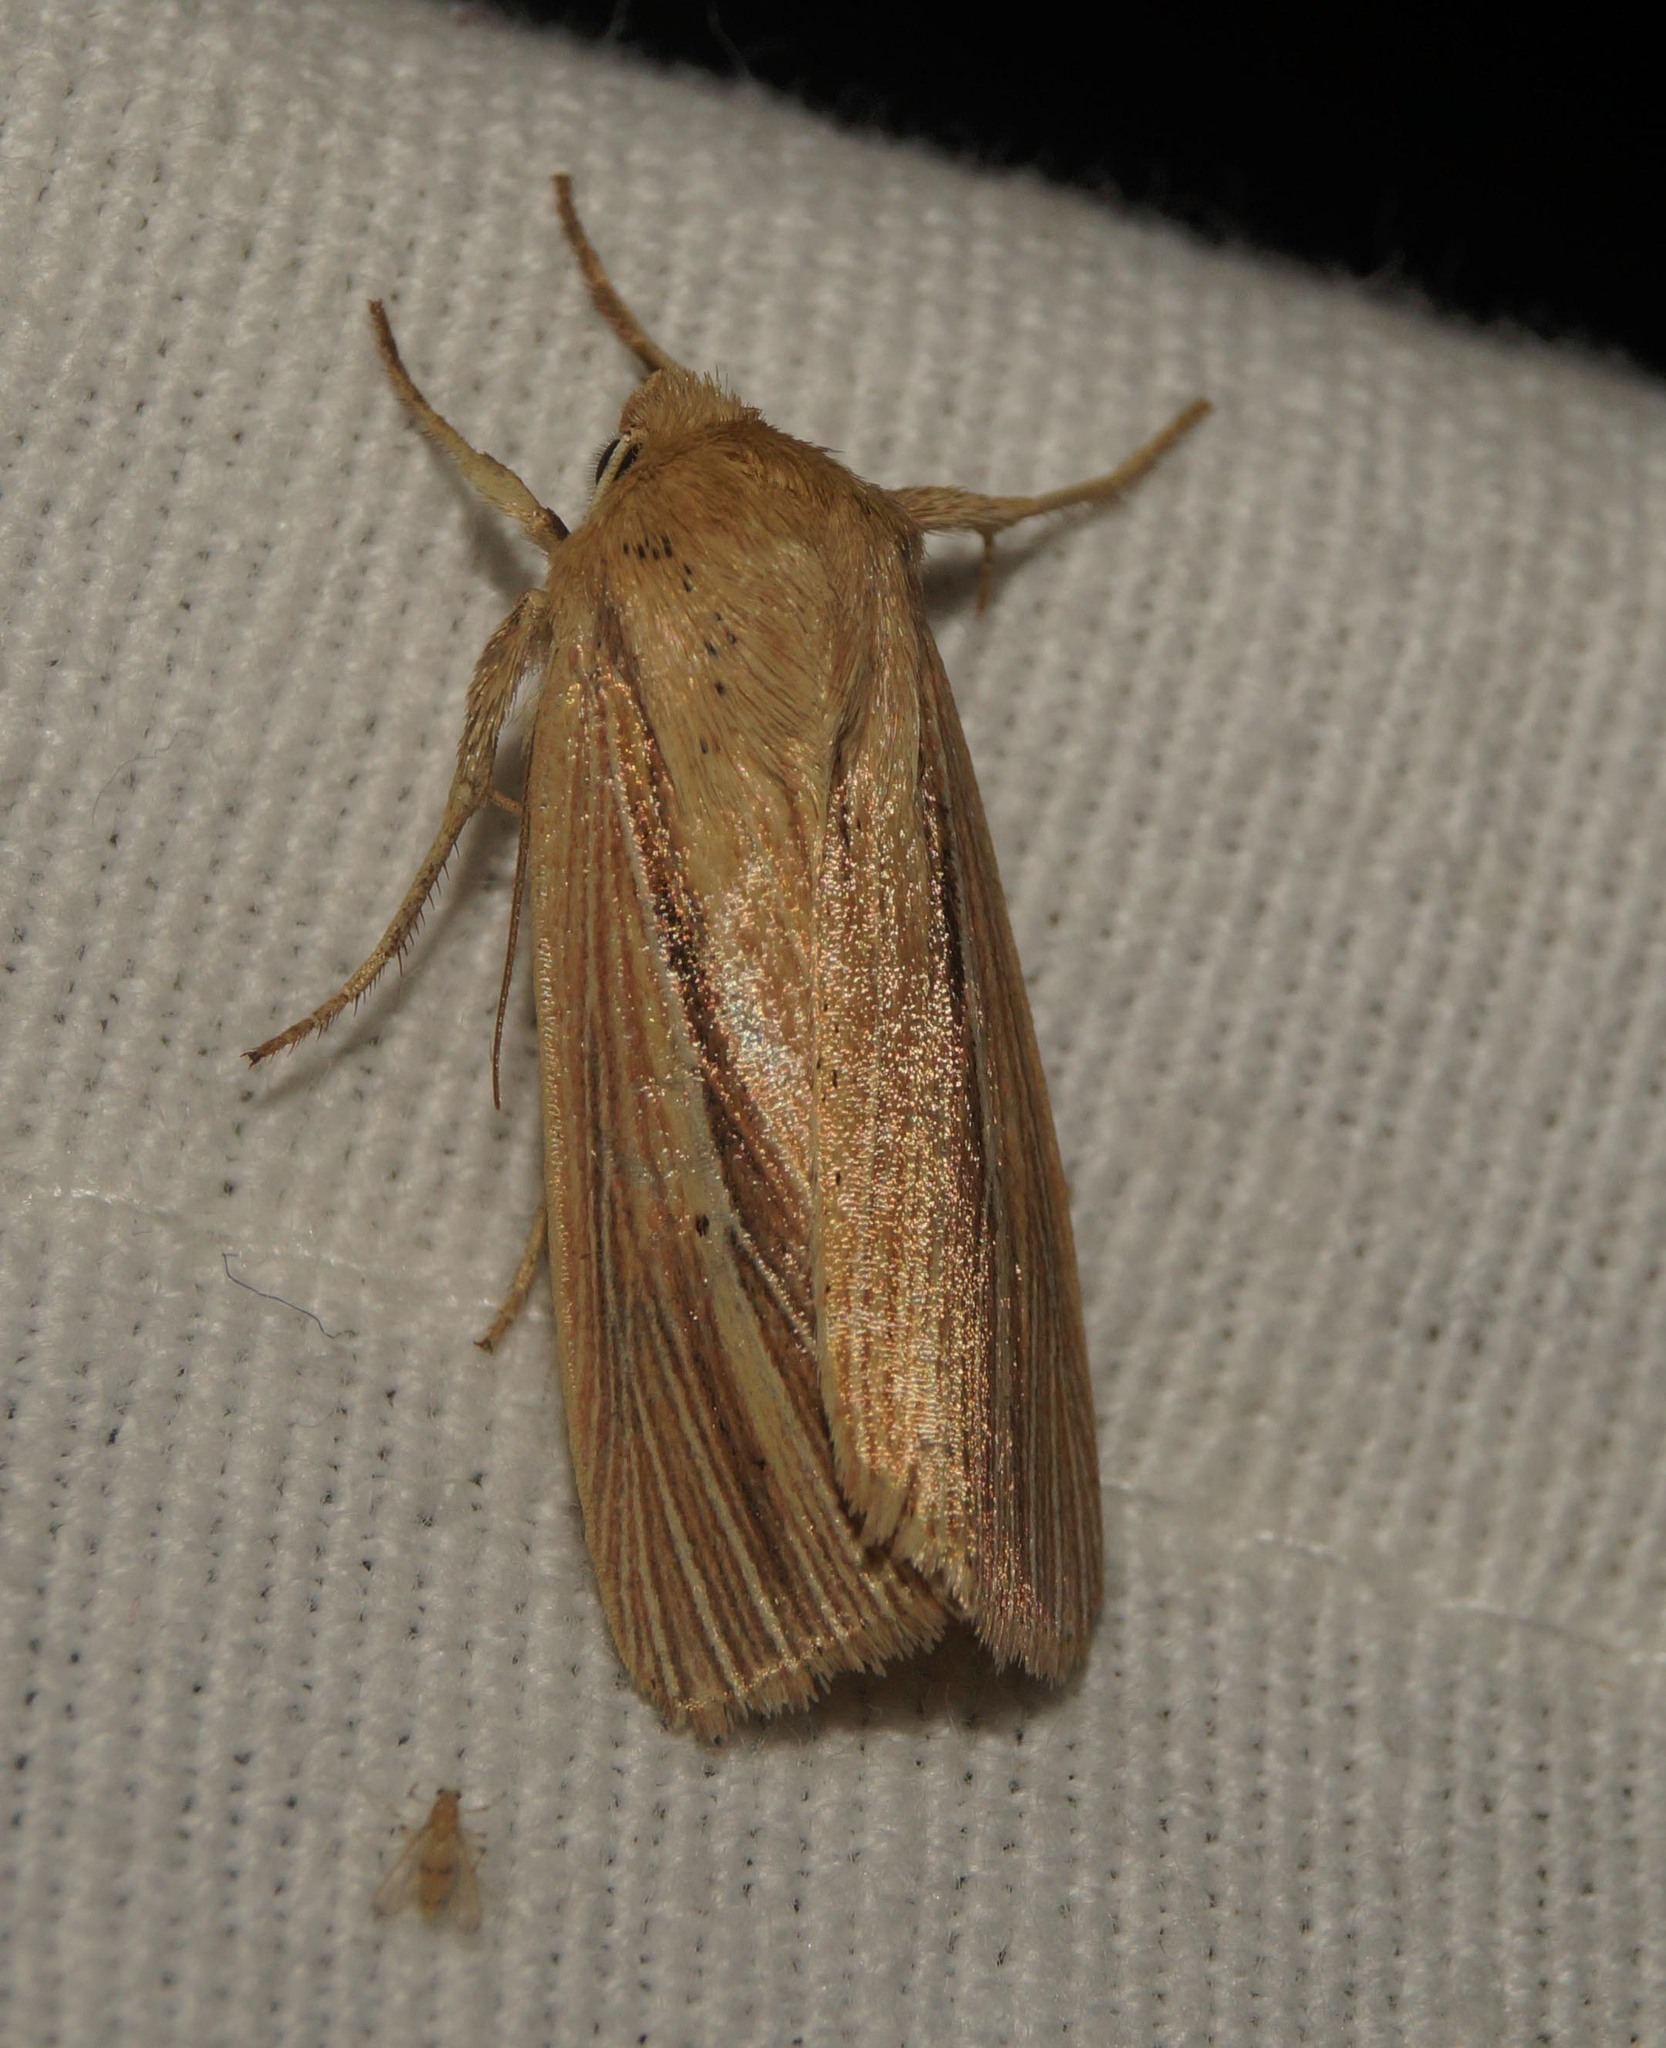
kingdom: Animalia
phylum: Arthropoda
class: Insecta
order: Lepidoptera
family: Noctuidae
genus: Mythimna
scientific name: Mythimna impura
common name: Smoky wainscot
